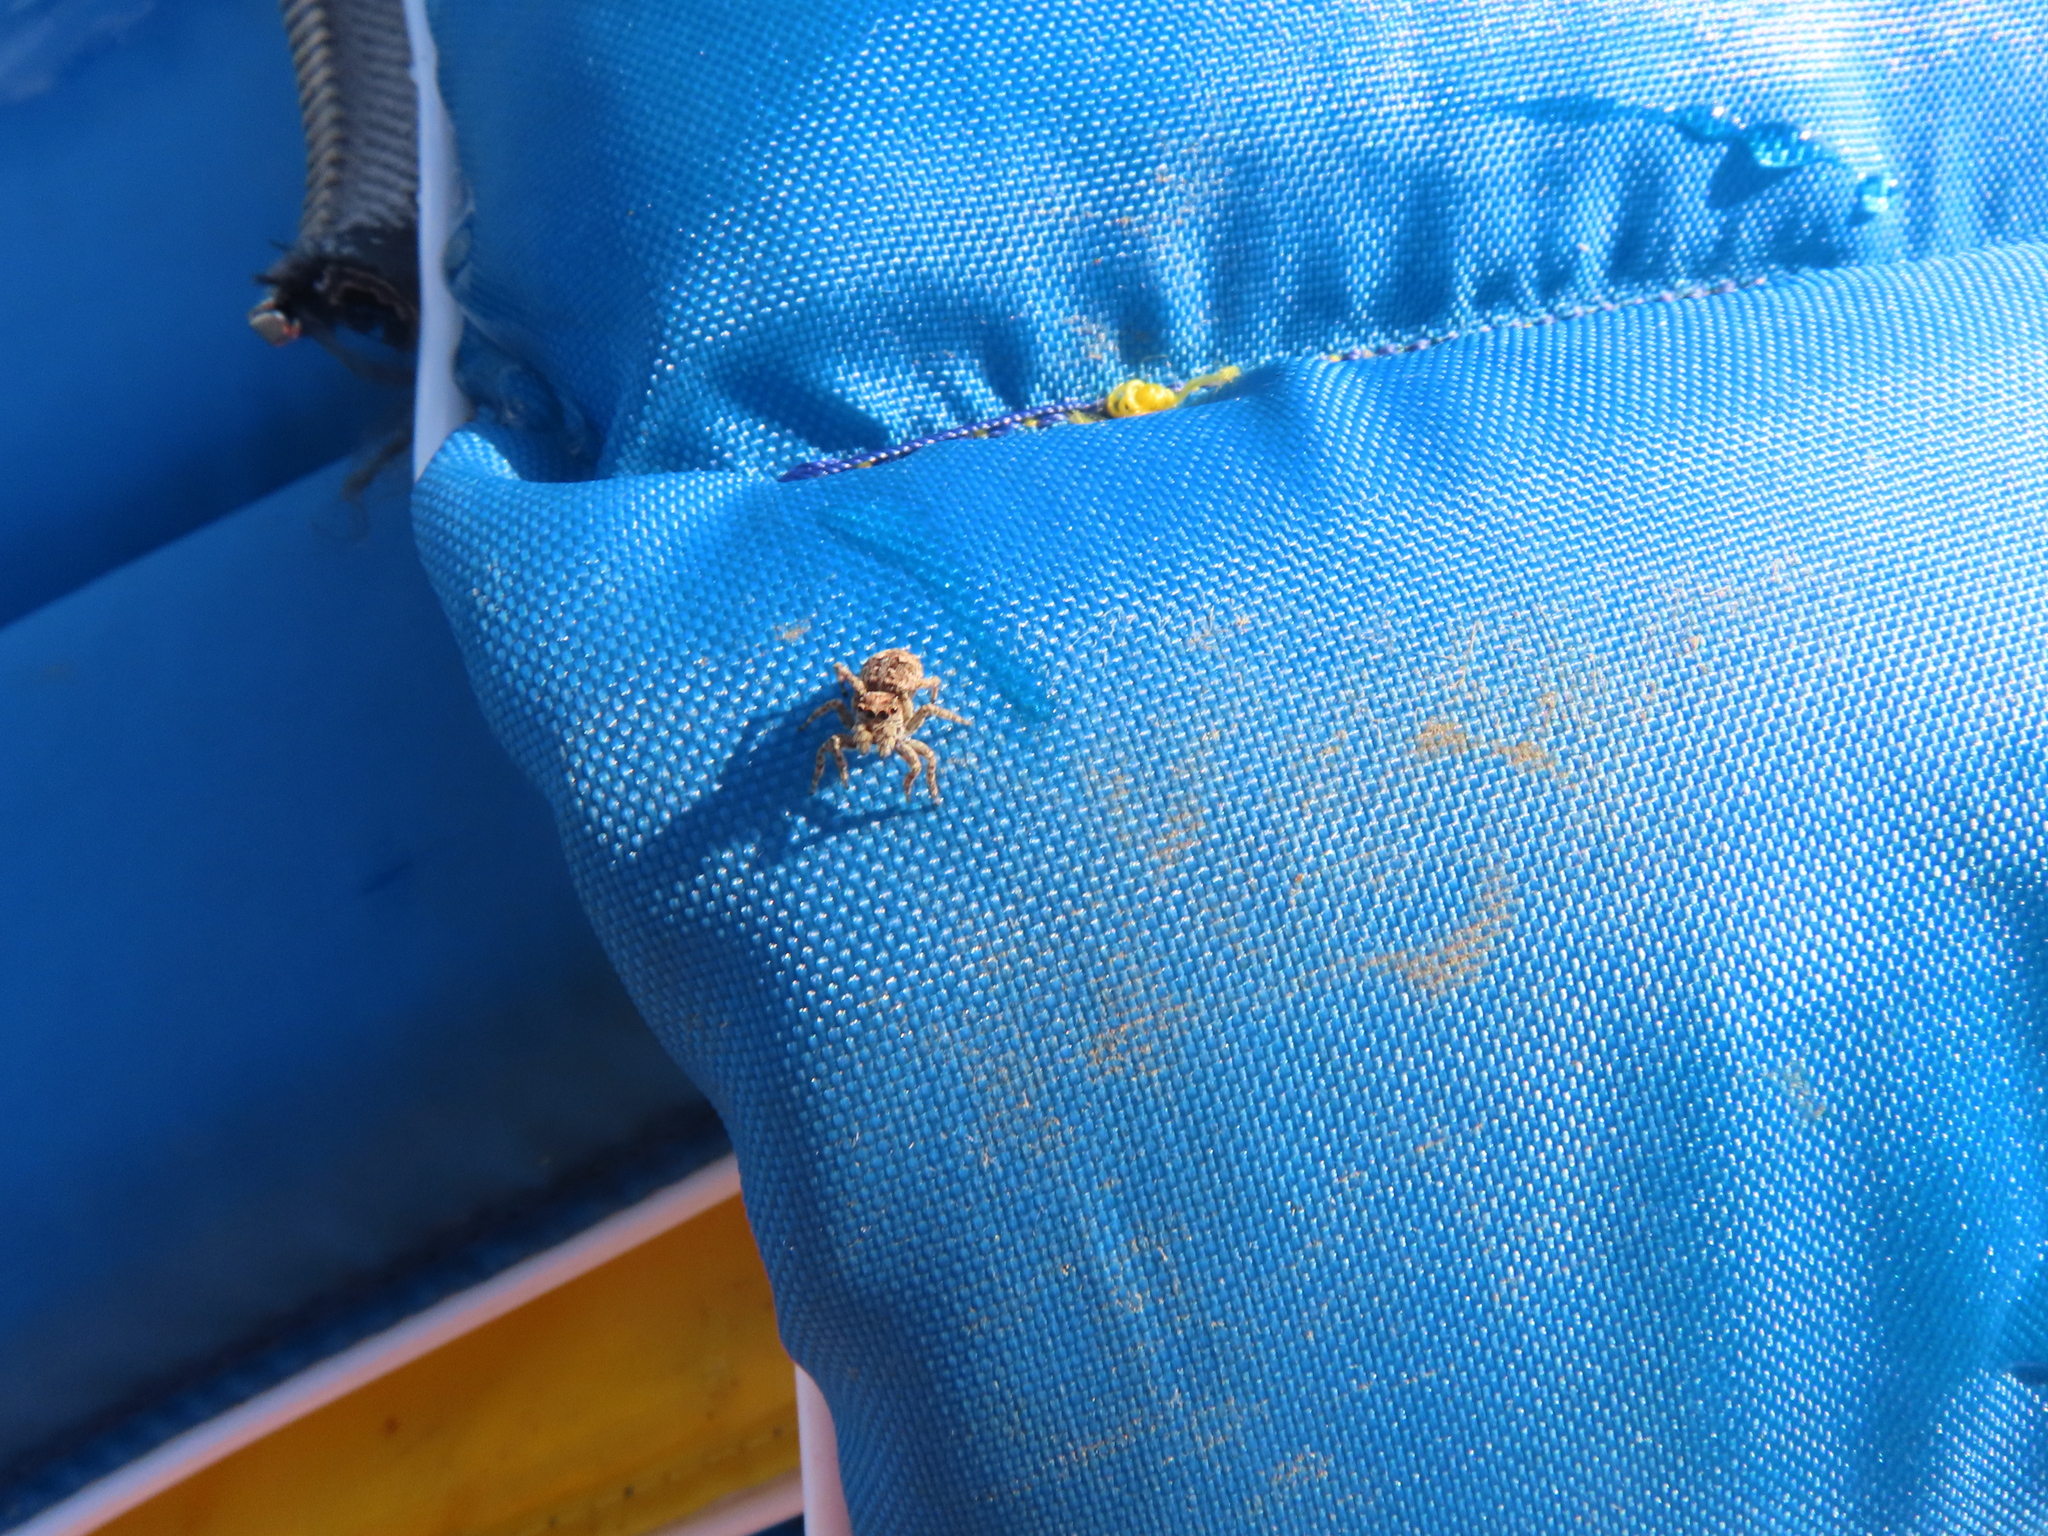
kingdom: Animalia
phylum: Arthropoda
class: Arachnida
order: Araneae
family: Salticidae
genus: Attulus
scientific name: Attulus fasciger
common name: Asiatic wall jumping spider
